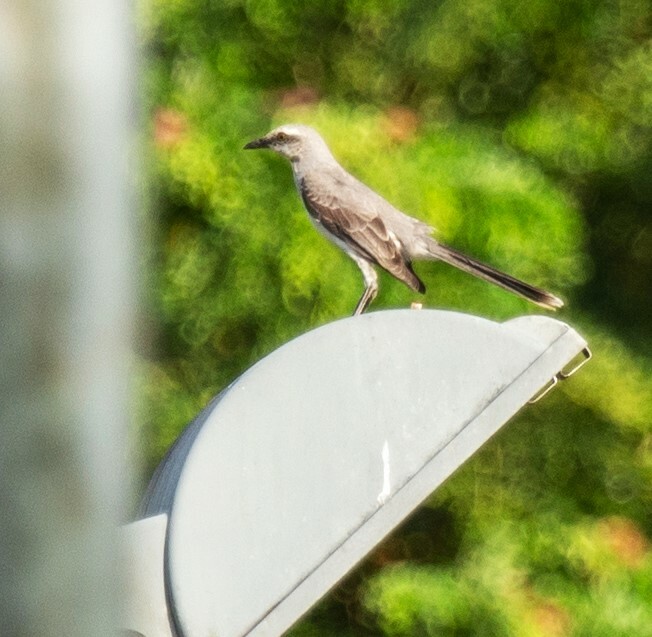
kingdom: Animalia
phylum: Chordata
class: Aves
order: Passeriformes
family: Mimidae
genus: Mimus
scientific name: Mimus gilvus
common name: Tropical mockingbird
